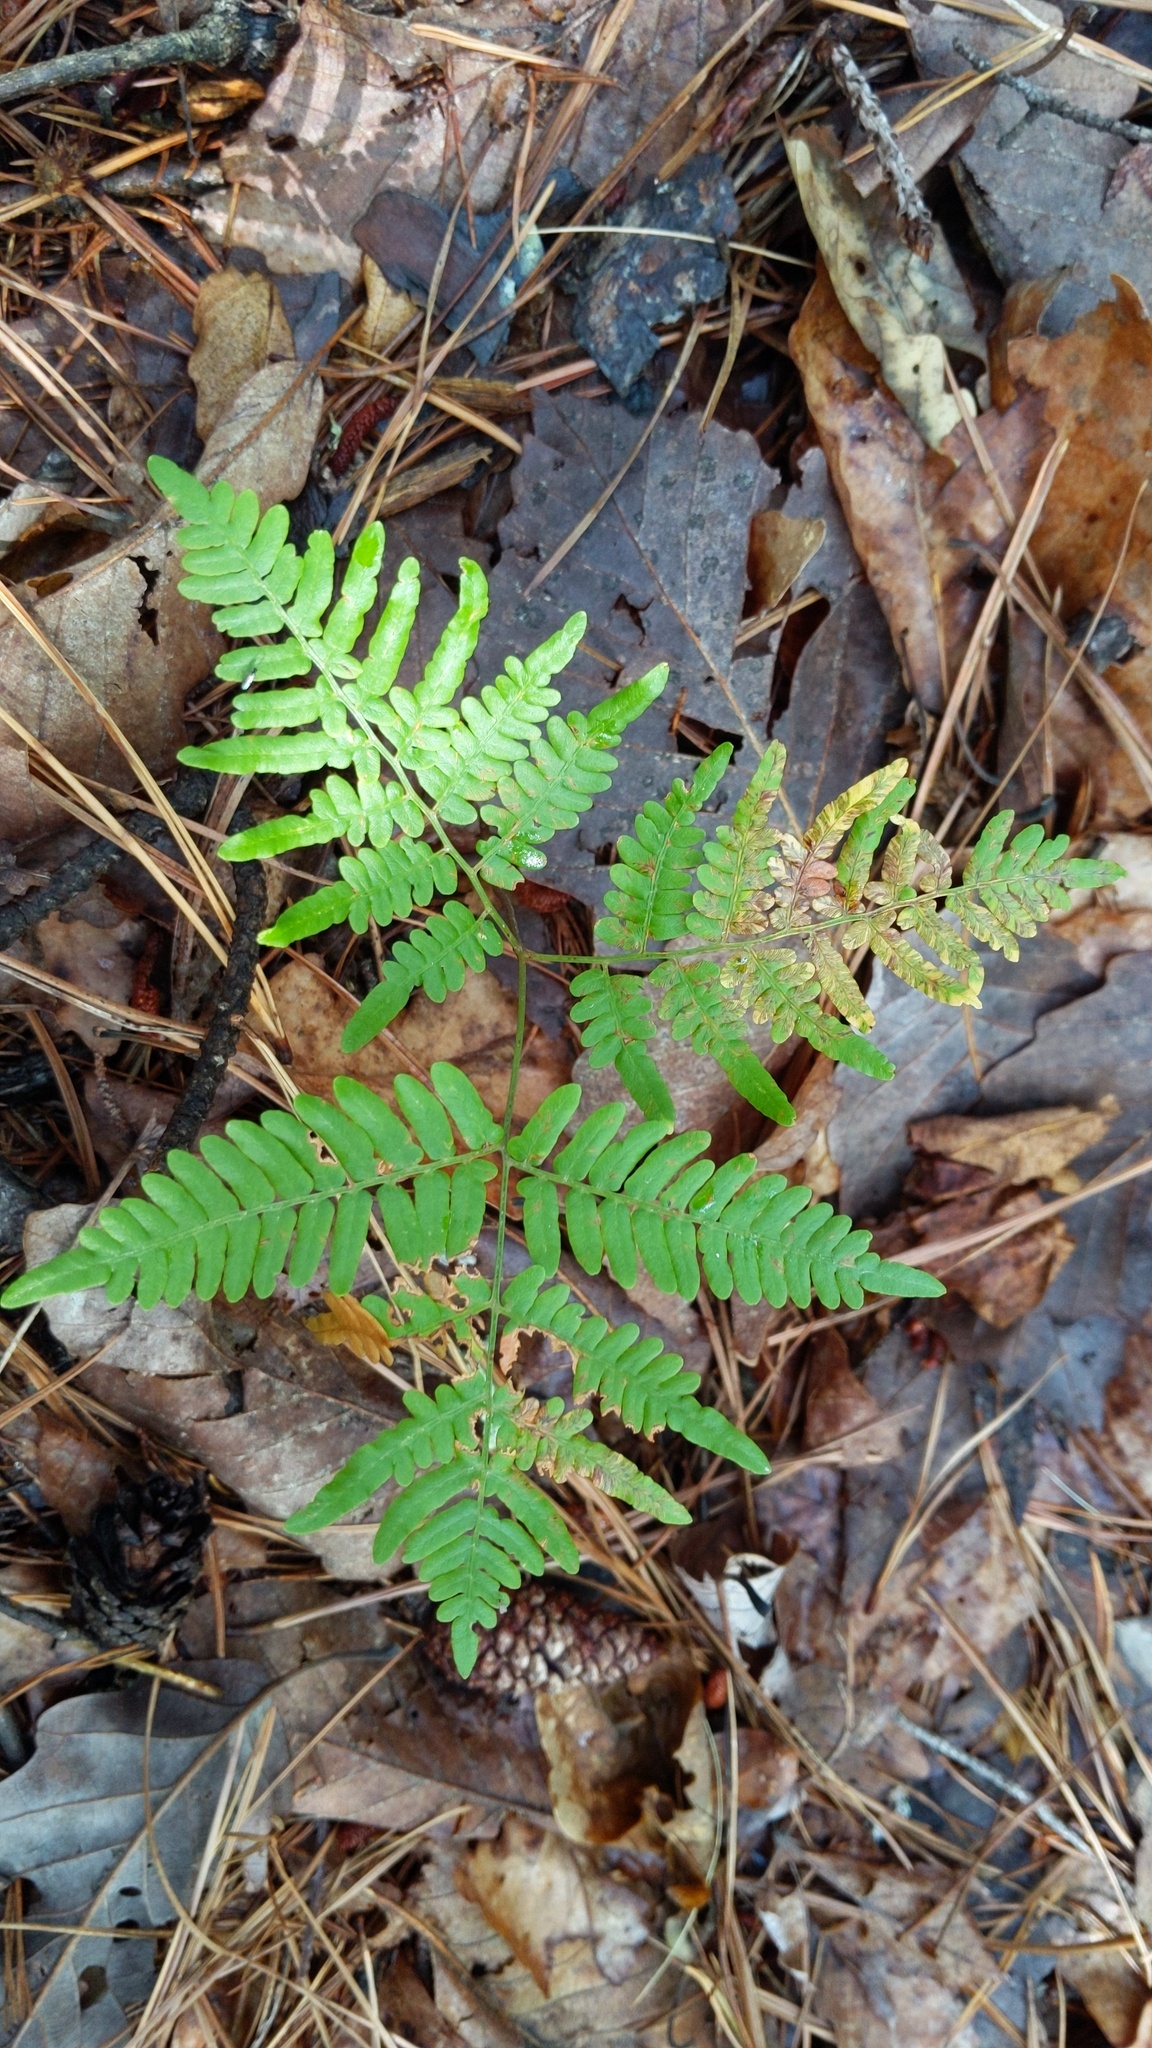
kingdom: Plantae
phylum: Tracheophyta
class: Polypodiopsida
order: Polypodiales
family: Dennstaedtiaceae
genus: Pteridium
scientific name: Pteridium aquilinum
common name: Bracken
